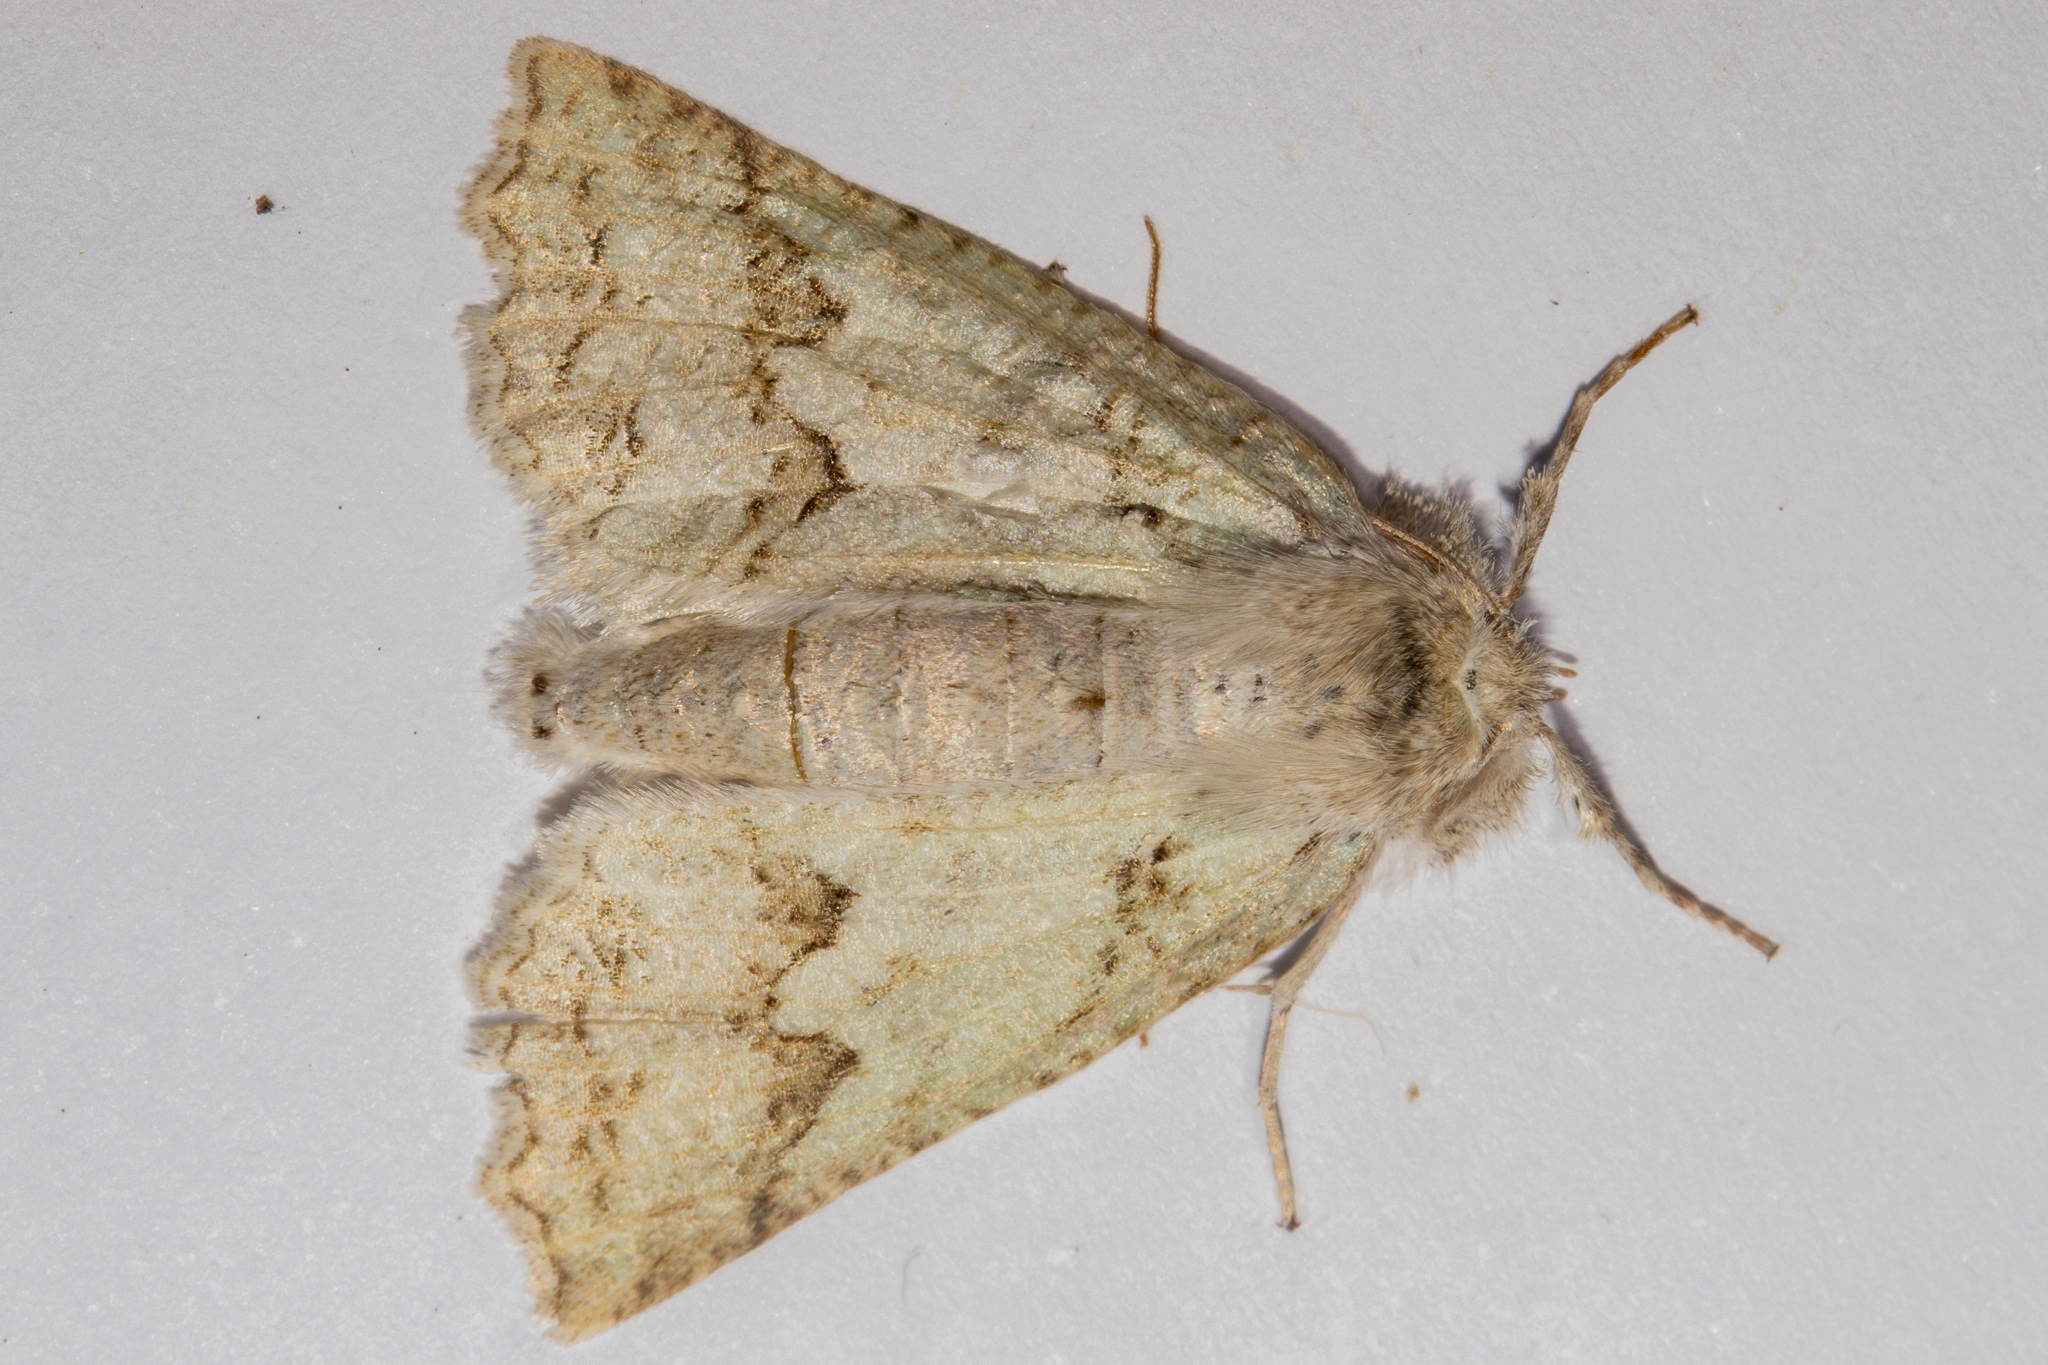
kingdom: Animalia
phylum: Arthropoda
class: Insecta
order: Lepidoptera
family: Geometridae
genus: Declana
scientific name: Declana floccosa
